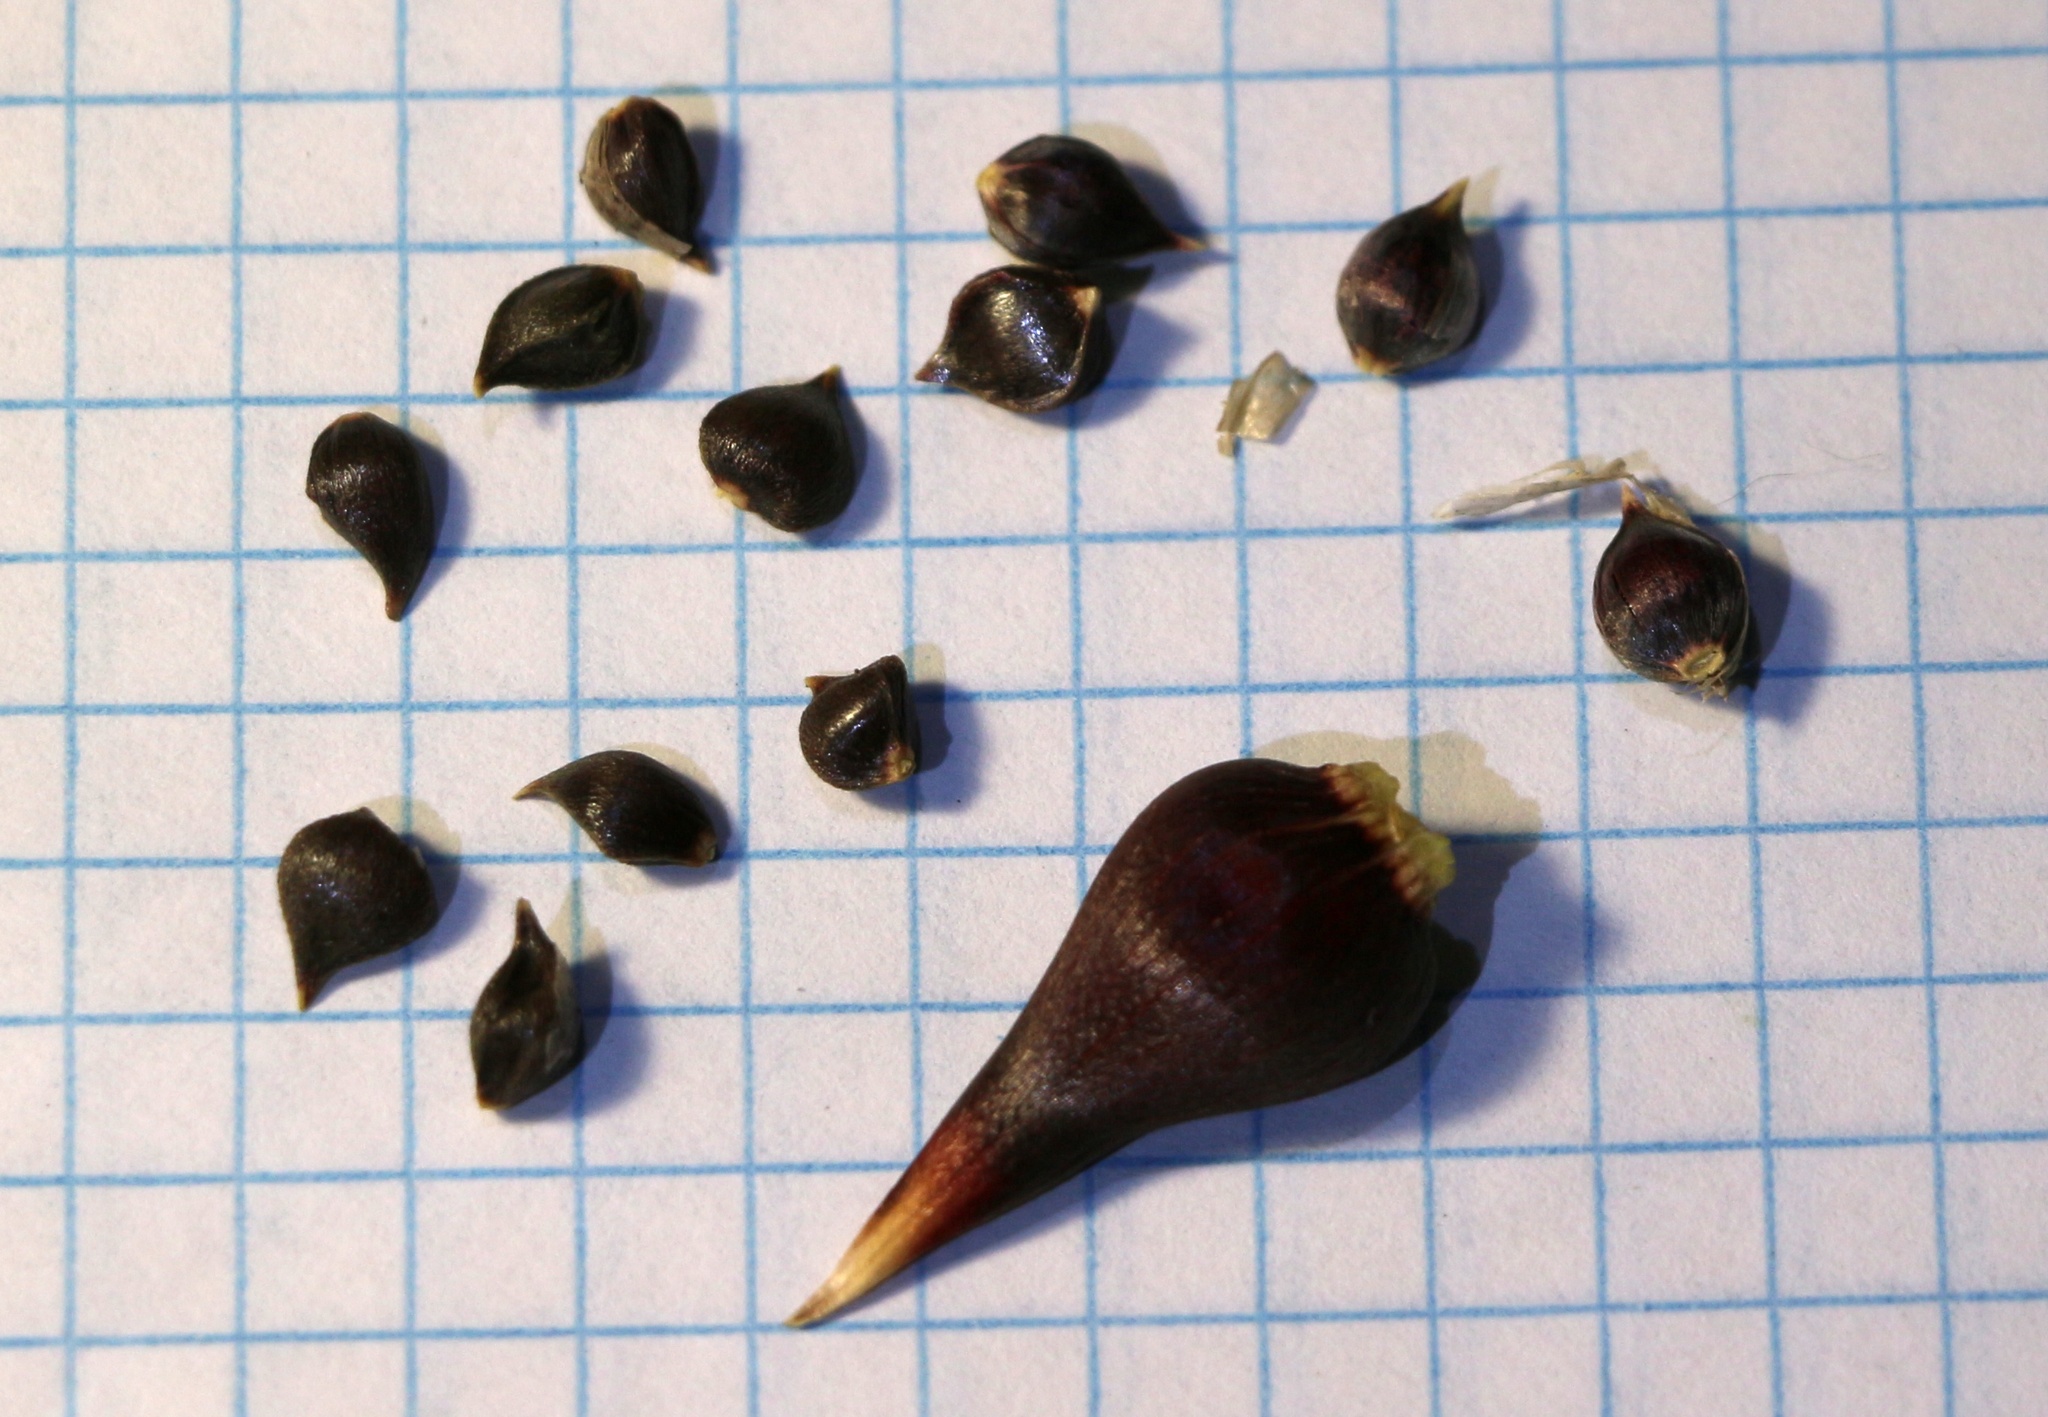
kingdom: Plantae
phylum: Tracheophyta
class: Liliopsida
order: Asparagales
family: Amaryllidaceae
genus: Allium
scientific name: Allium rotundum
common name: Sand leek
